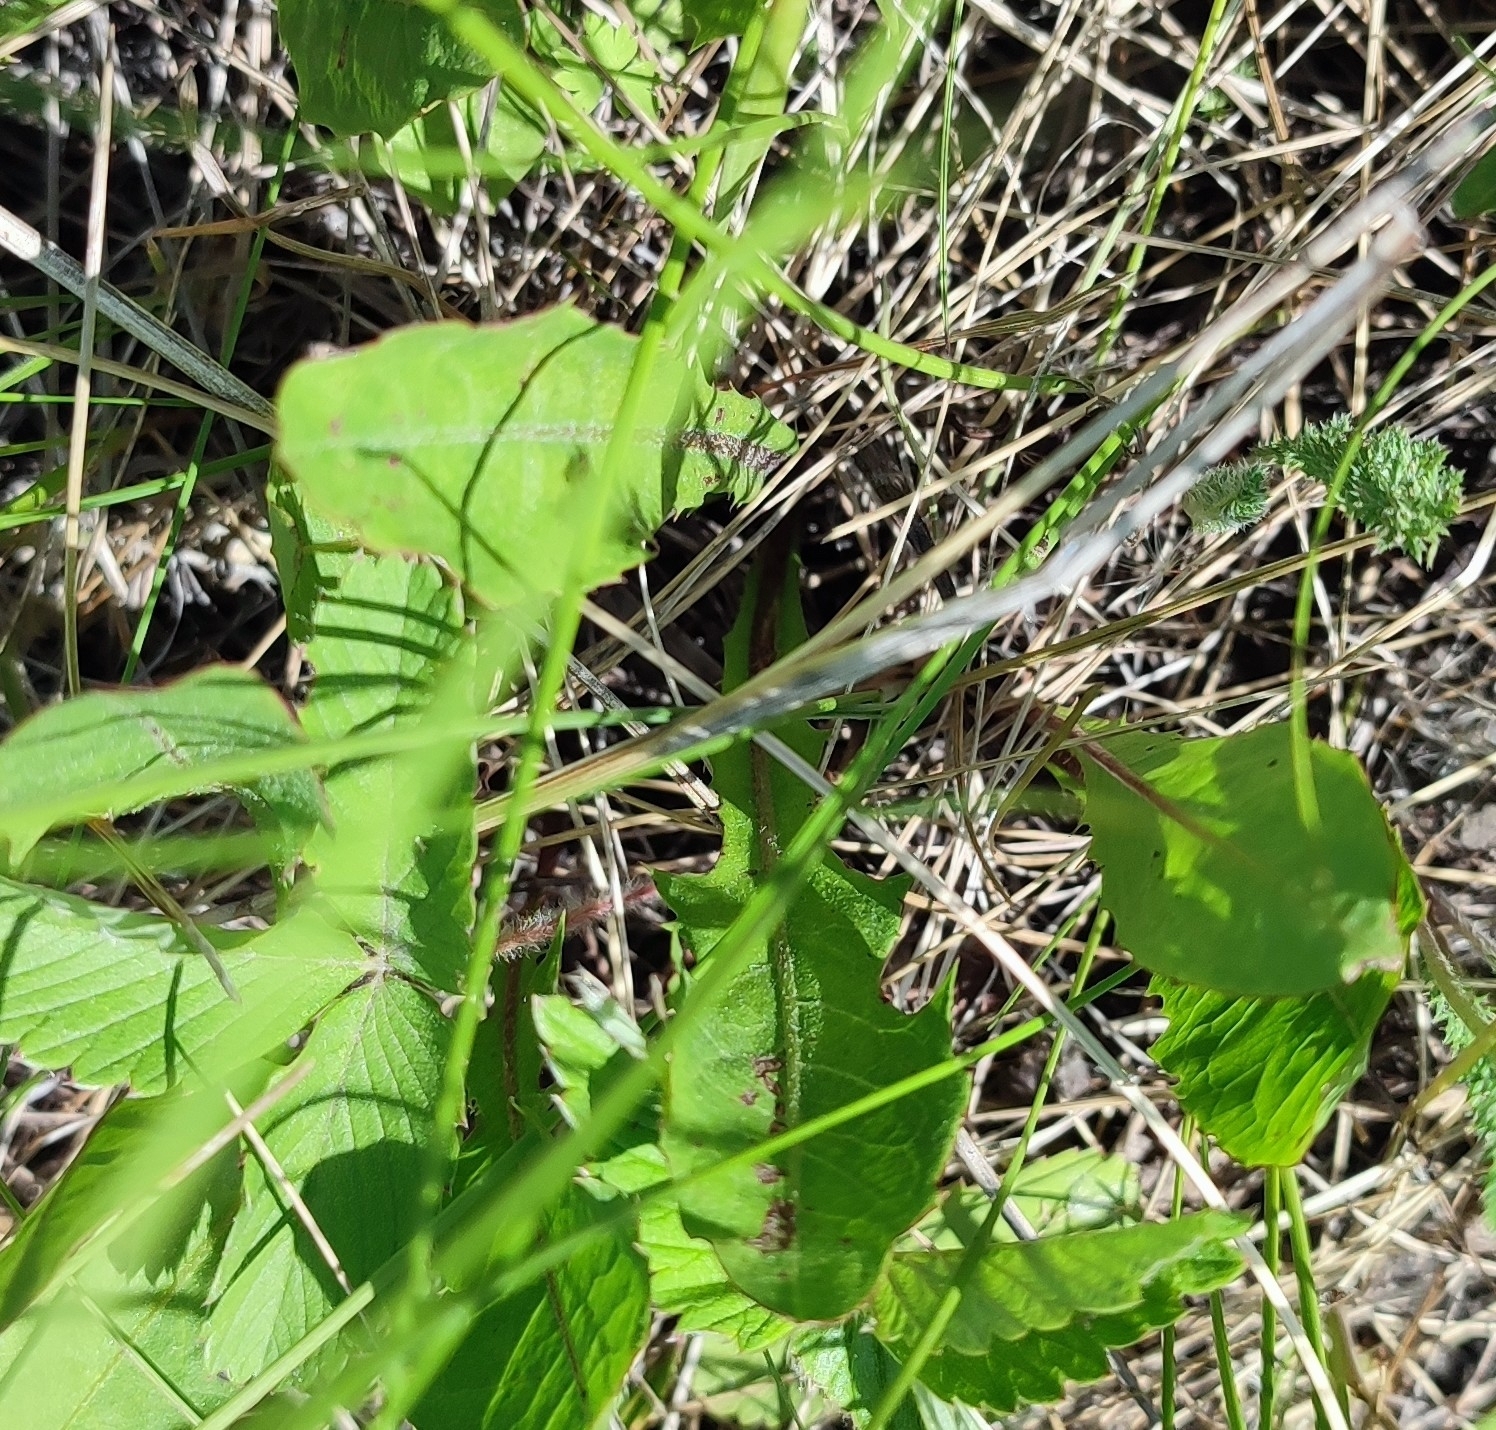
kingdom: Plantae
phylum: Tracheophyta
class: Magnoliopsida
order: Asterales
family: Asteraceae
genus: Taraxacum
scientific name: Taraxacum officinale
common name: Common dandelion
